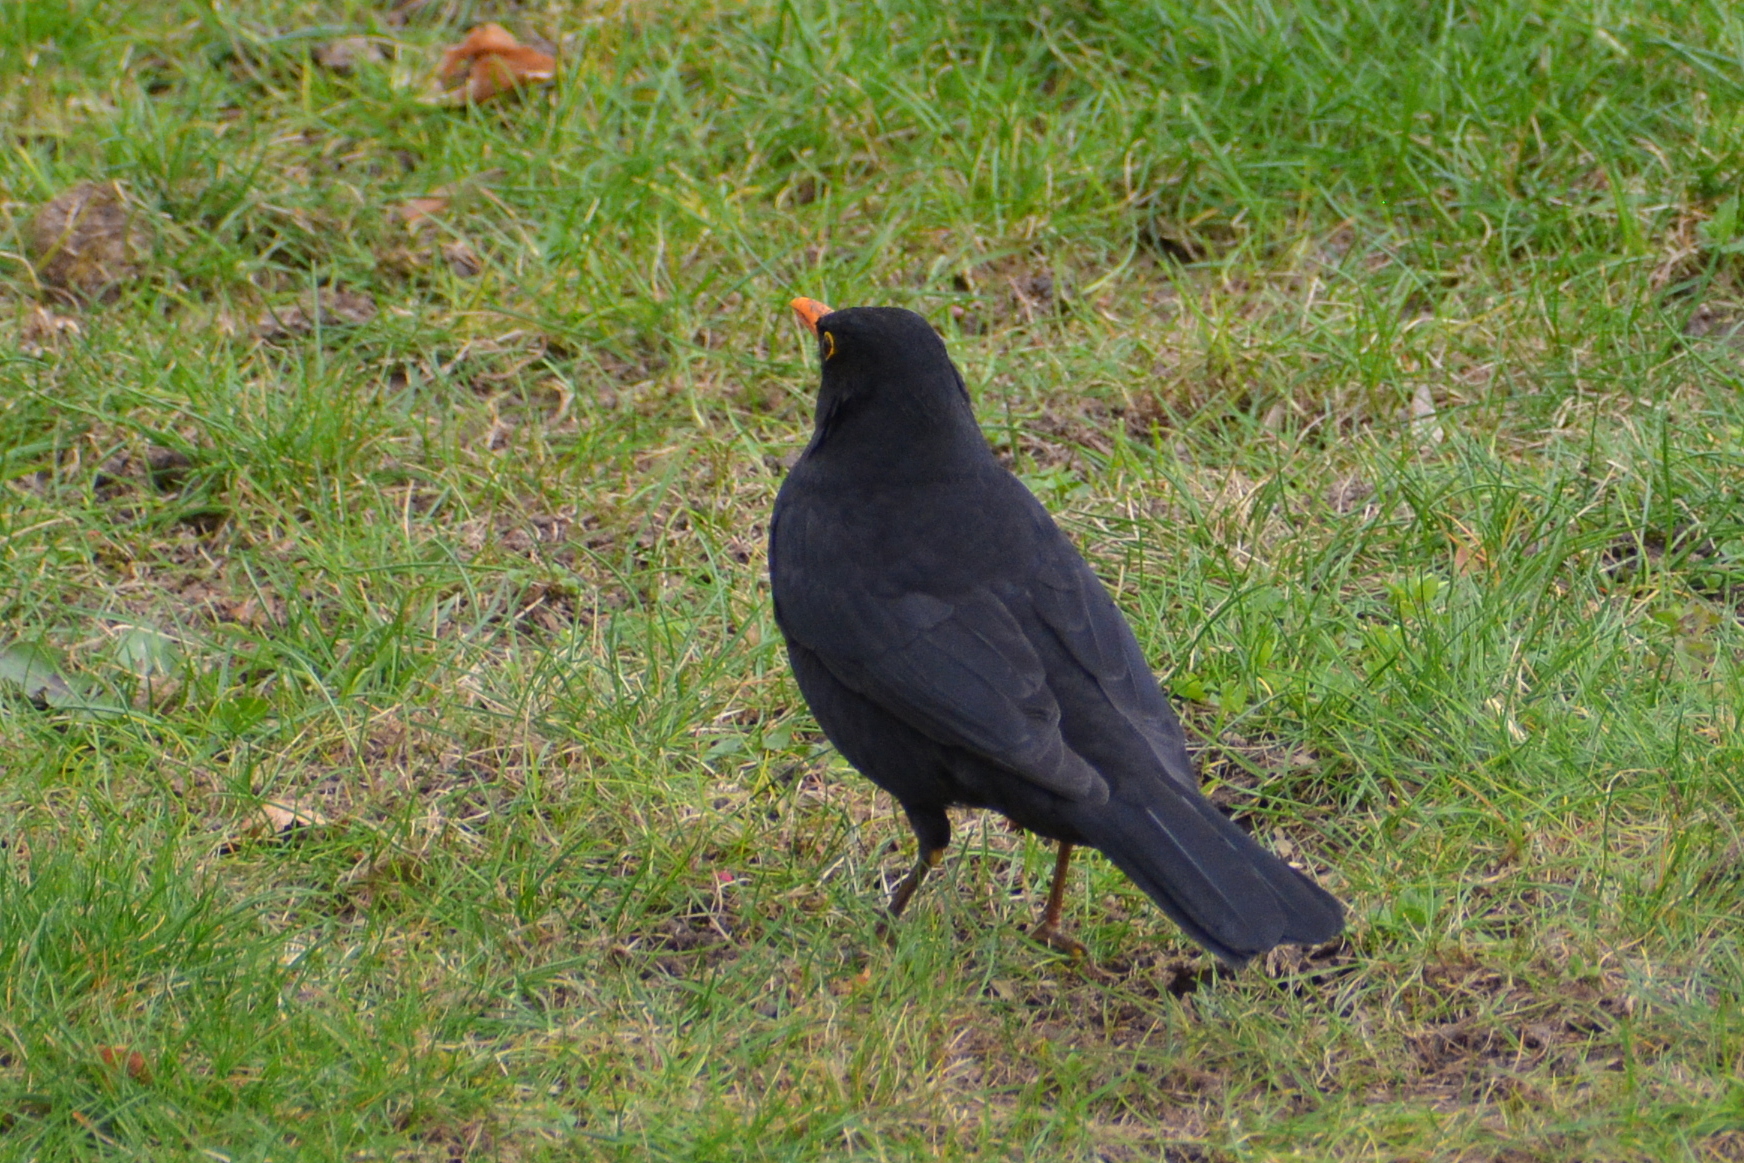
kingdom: Animalia
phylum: Chordata
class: Aves
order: Passeriformes
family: Turdidae
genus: Turdus
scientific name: Turdus merula
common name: Common blackbird
